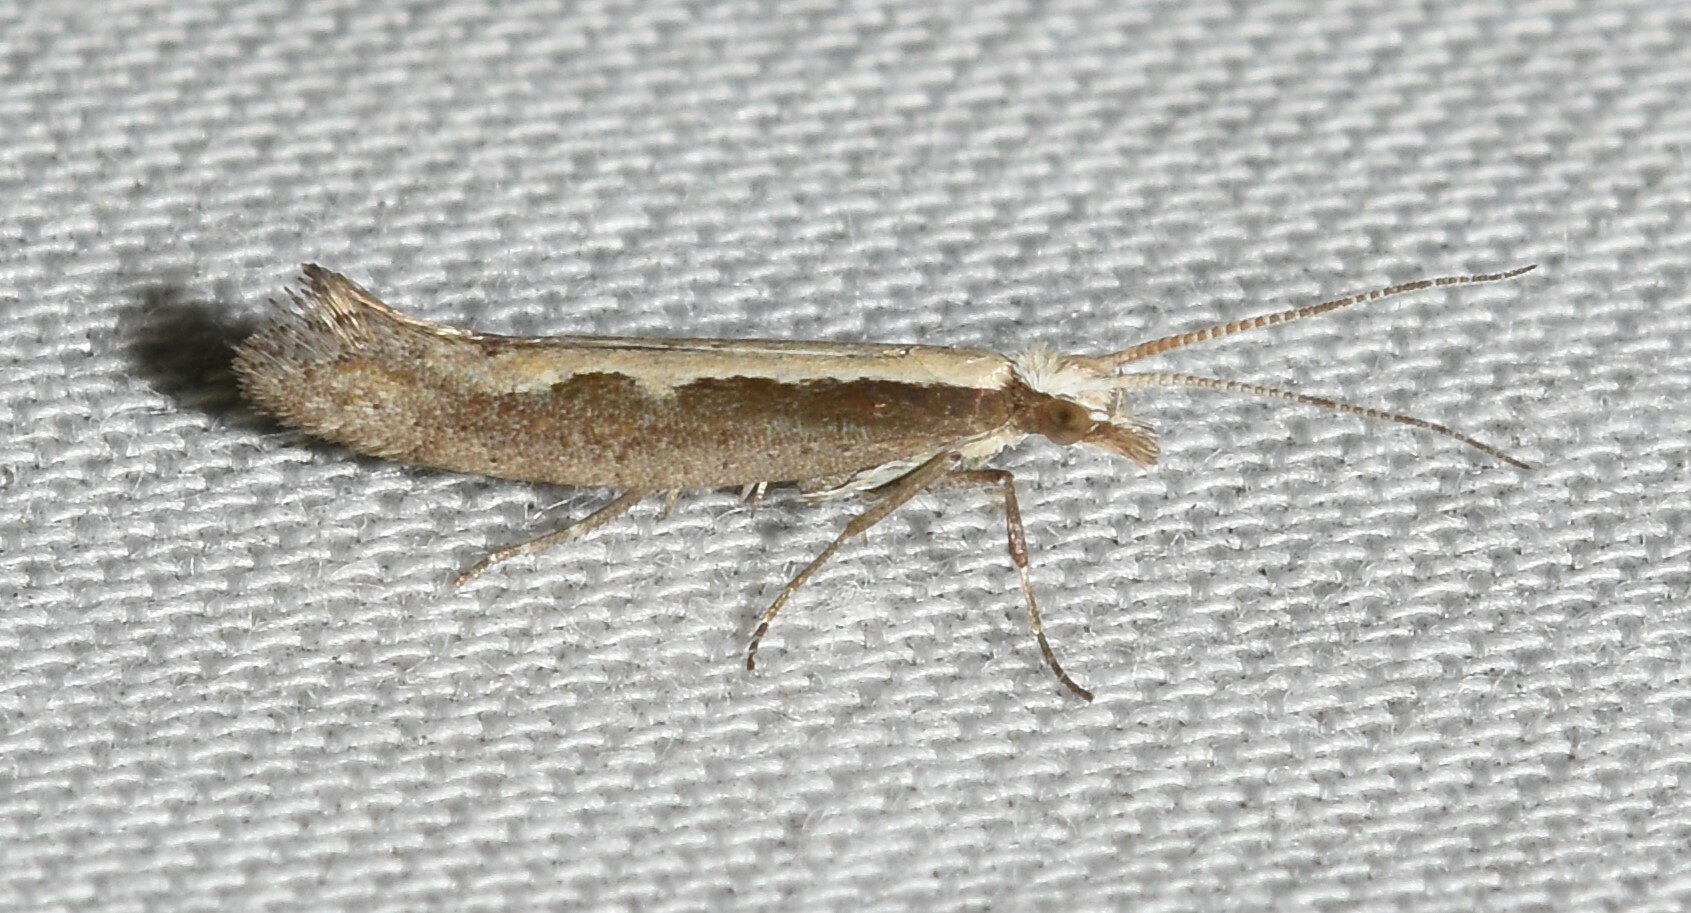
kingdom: Animalia
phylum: Arthropoda
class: Insecta
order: Lepidoptera
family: Plutellidae
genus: Plutella
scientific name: Plutella xylostella
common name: Diamond-back moth
